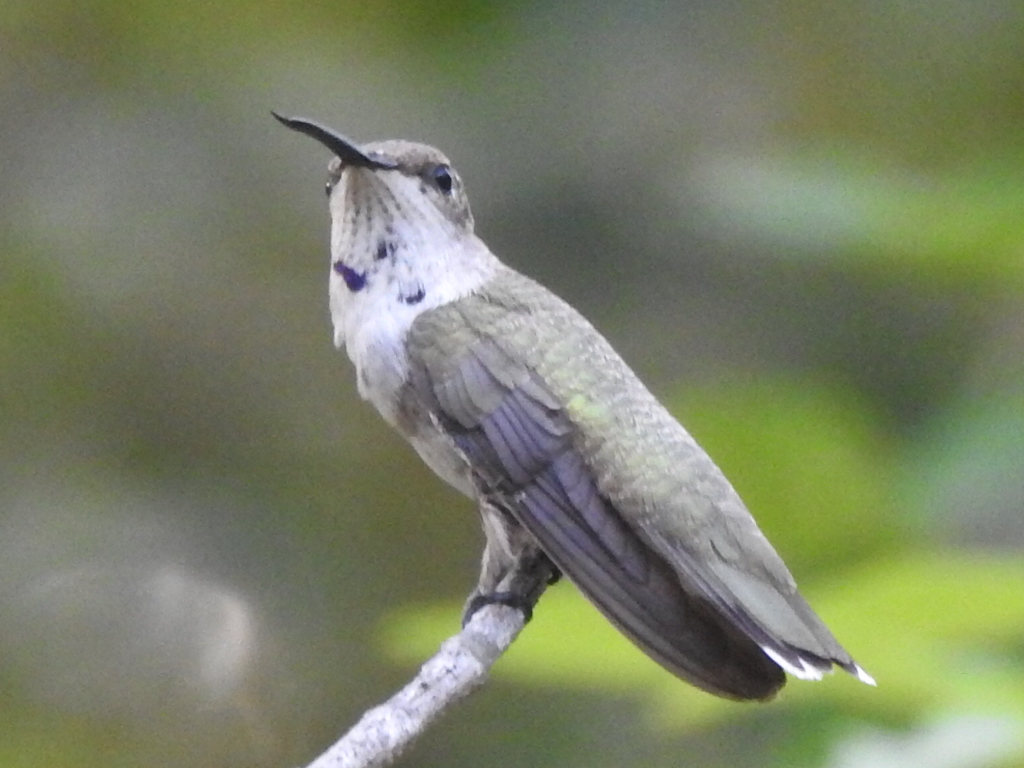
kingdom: Animalia
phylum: Chordata
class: Aves
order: Apodiformes
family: Trochilidae
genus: Archilochus
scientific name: Archilochus alexandri
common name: Black-chinned hummingbird
